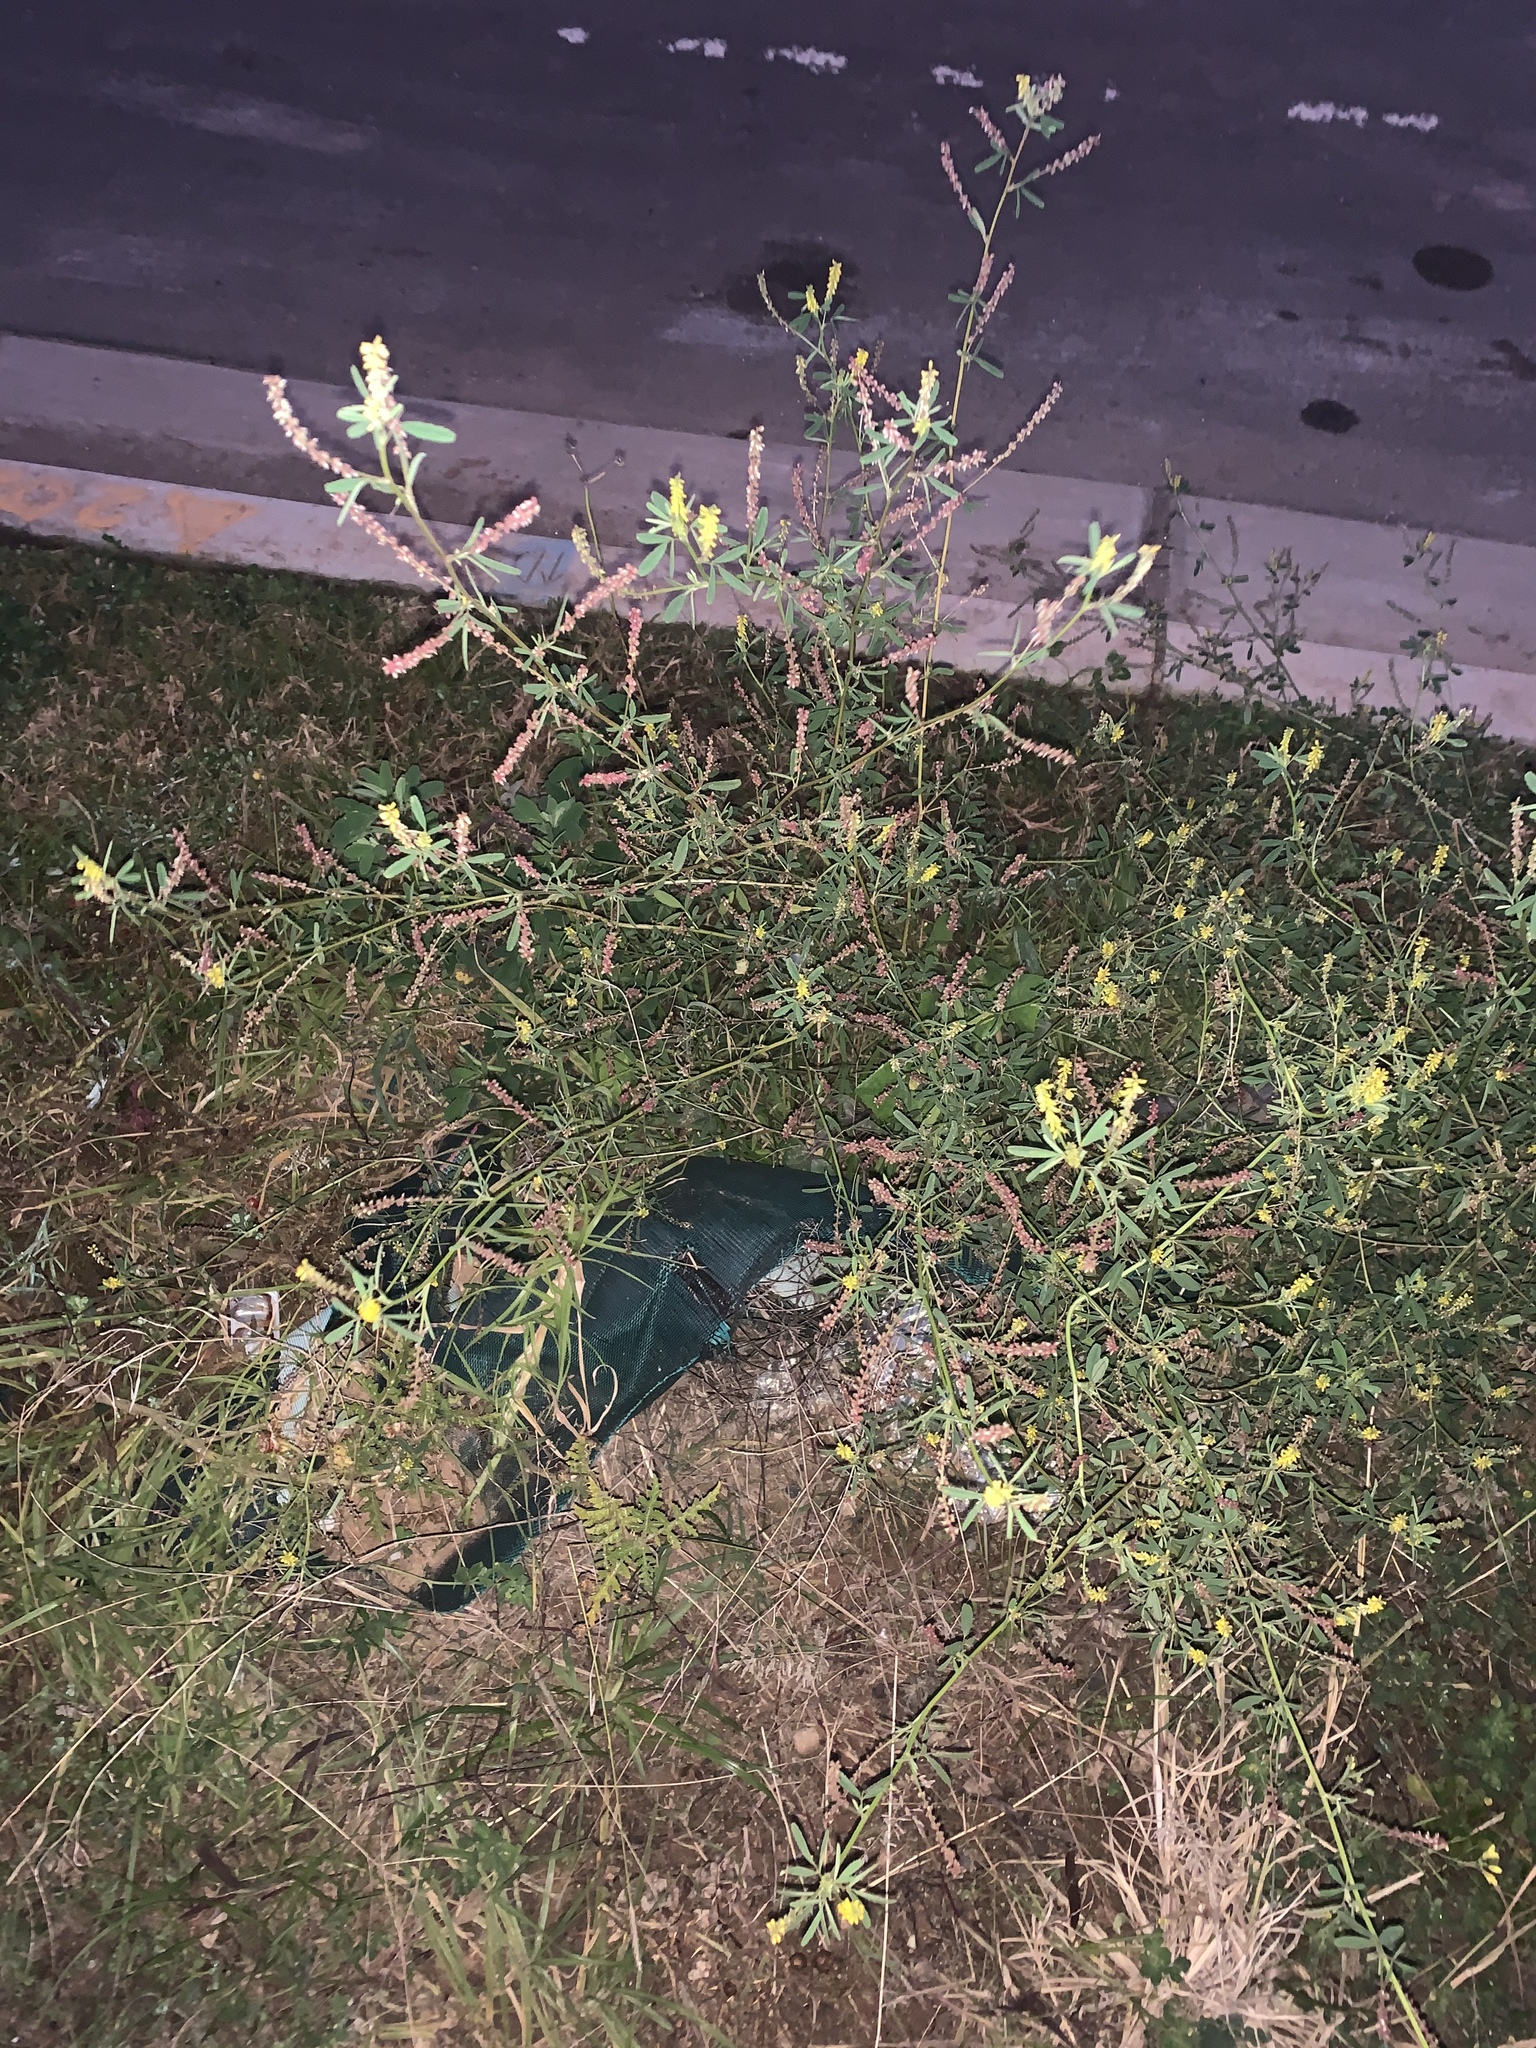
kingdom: Plantae
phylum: Tracheophyta
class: Magnoliopsida
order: Fabales
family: Fabaceae
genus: Melilotus
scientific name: Melilotus indicus
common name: Small melilot
